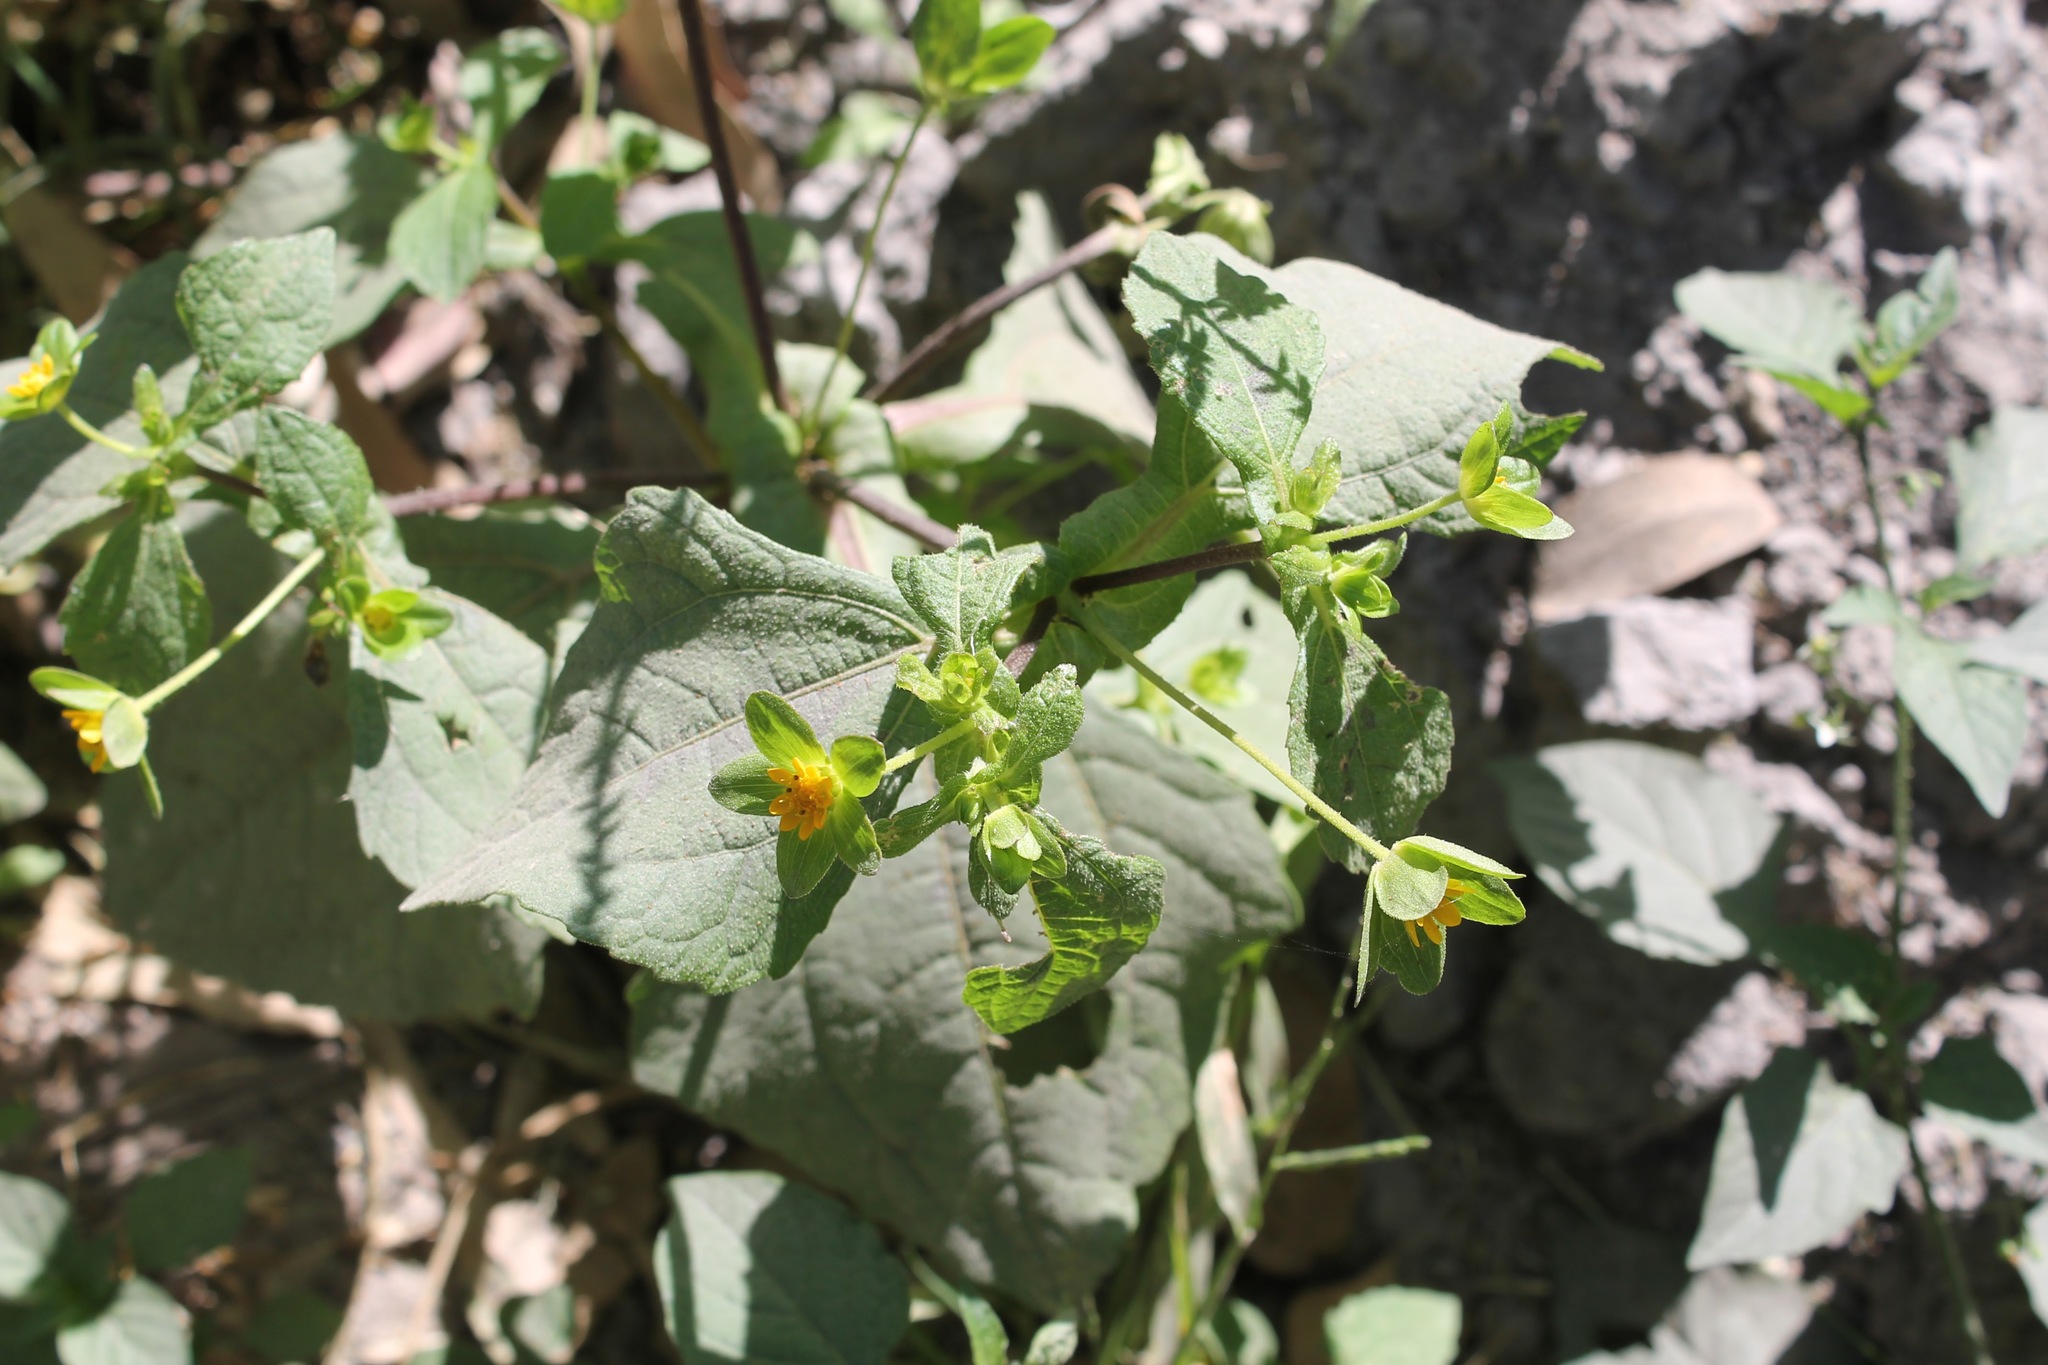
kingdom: Plantae
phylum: Tracheophyta
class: Magnoliopsida
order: Asterales
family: Asteraceae
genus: Melampodium
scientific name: Melampodium perfoliatum
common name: Perfoliate blackfoot
